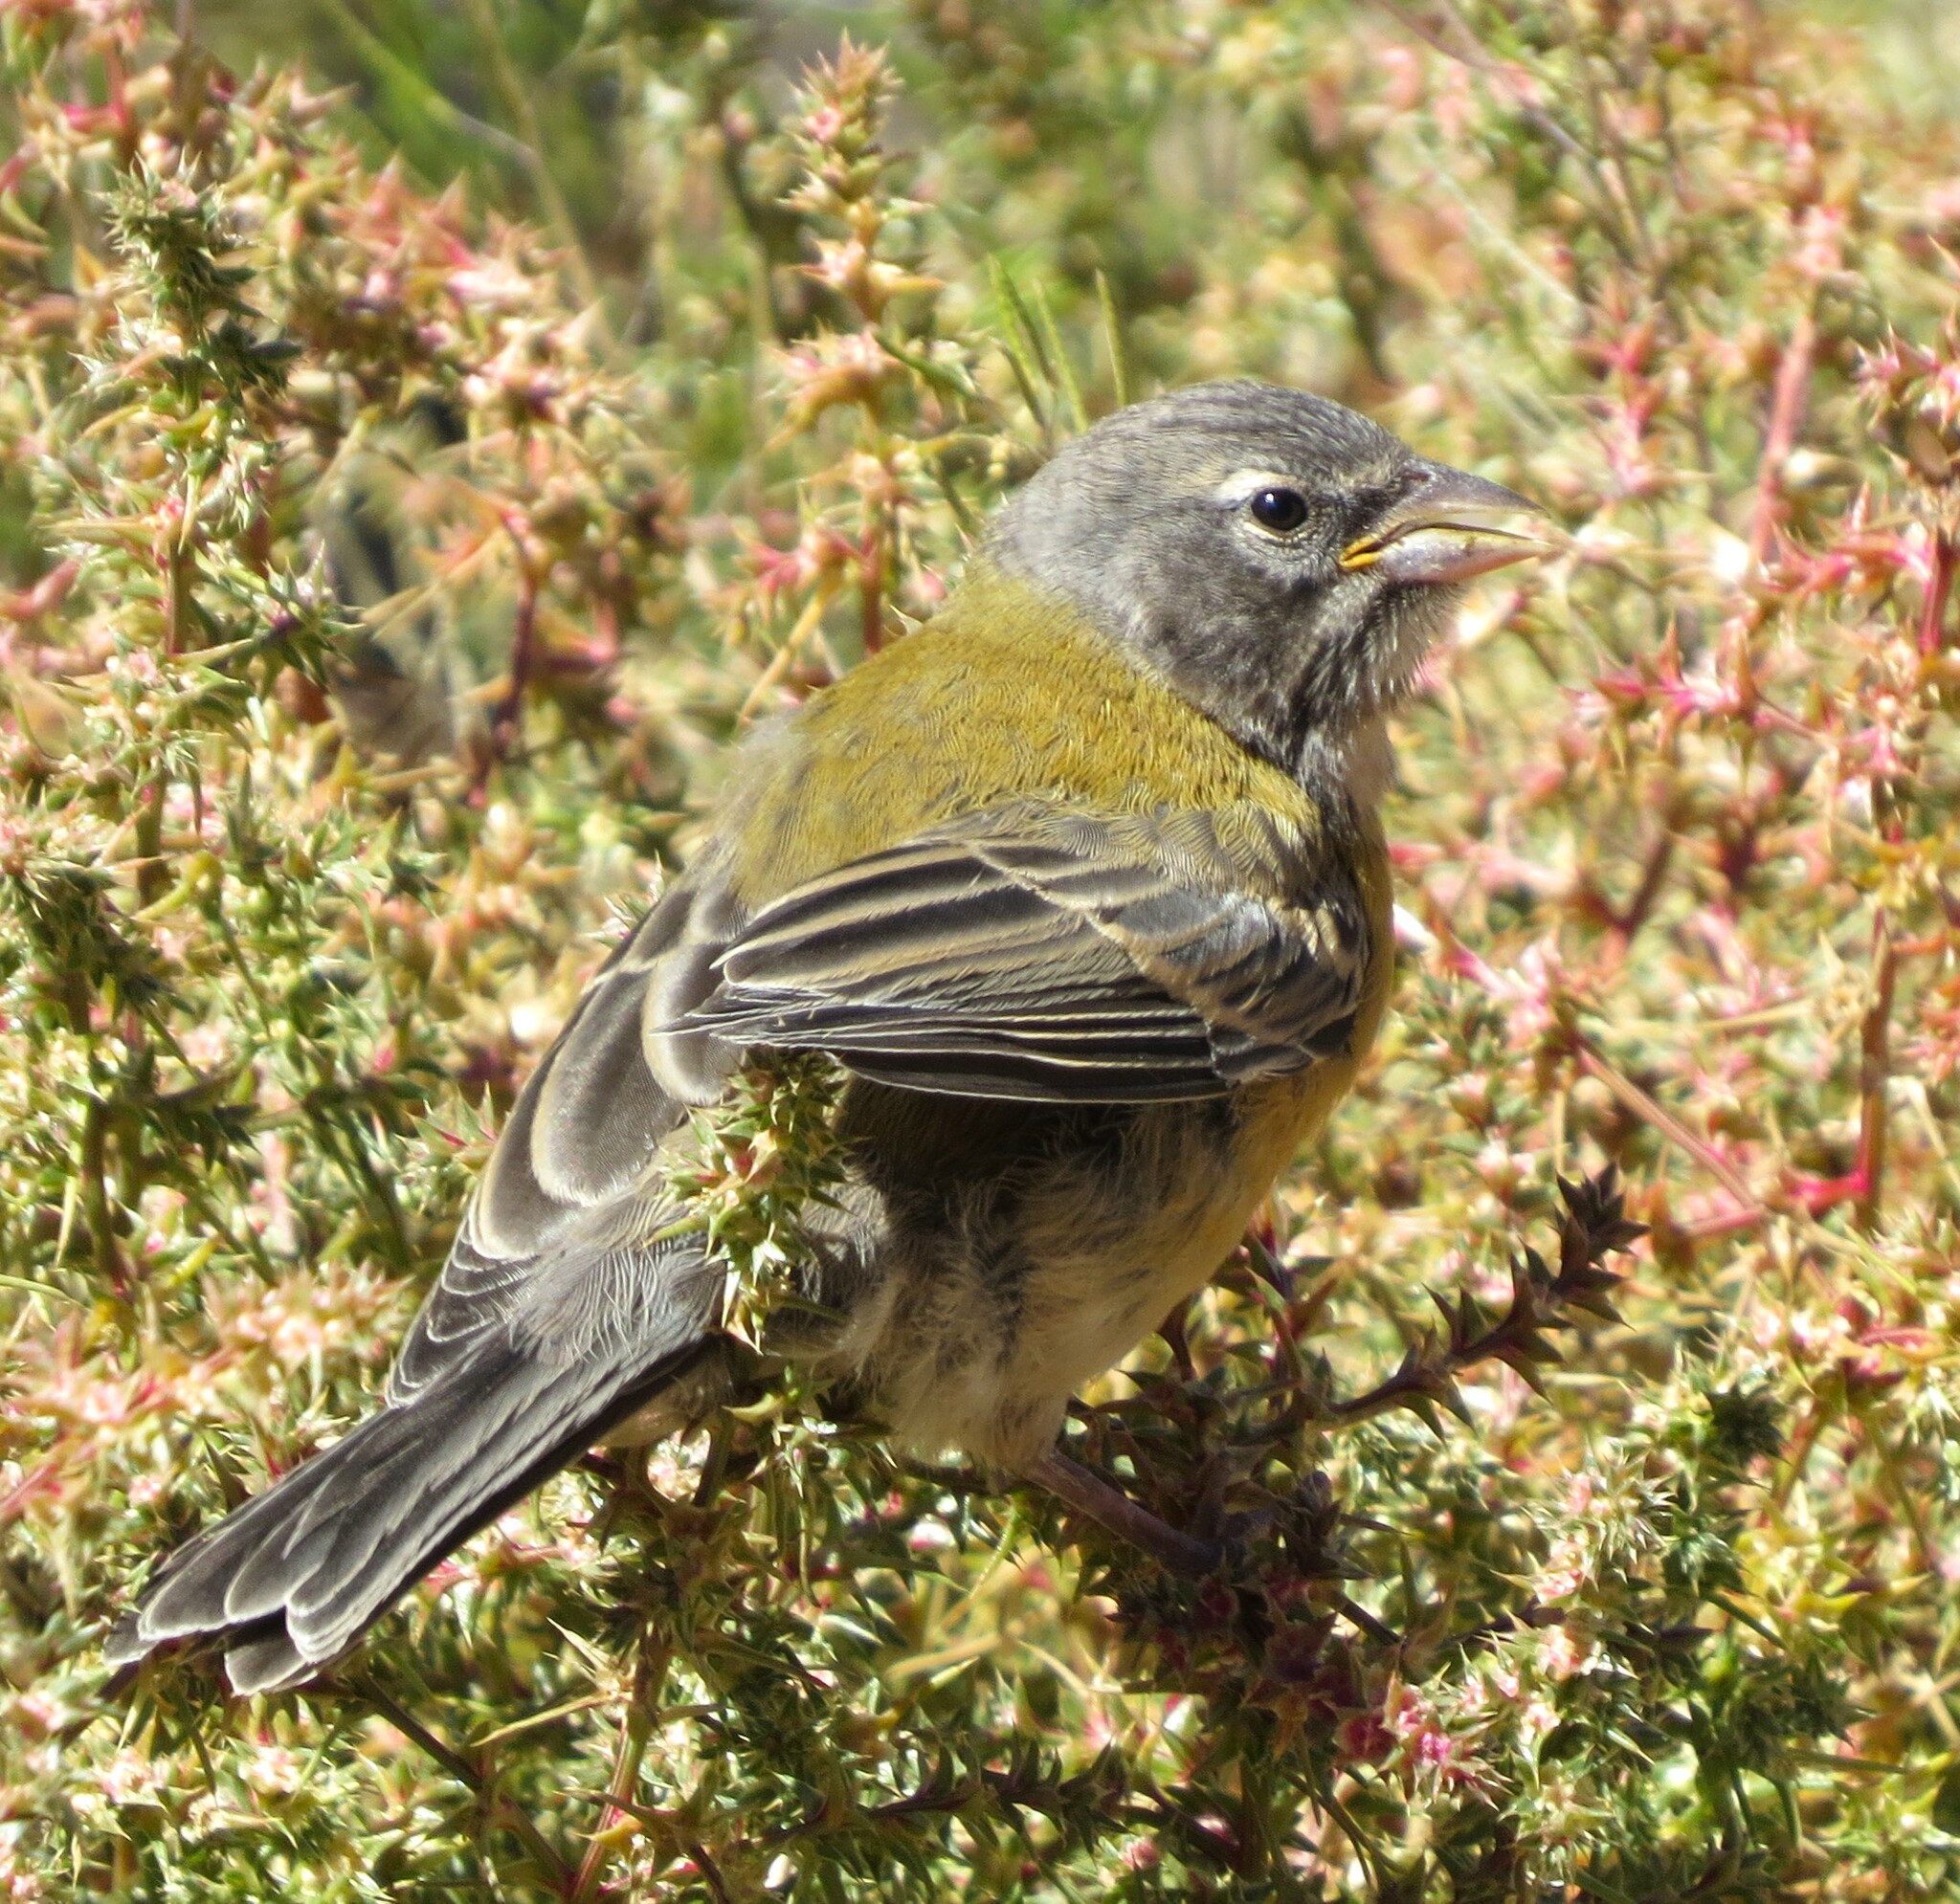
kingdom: Animalia
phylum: Chordata
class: Aves
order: Passeriformes
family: Thraupidae
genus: Phrygilus
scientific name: Phrygilus gayi
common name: Grey-hooded sierra finch
